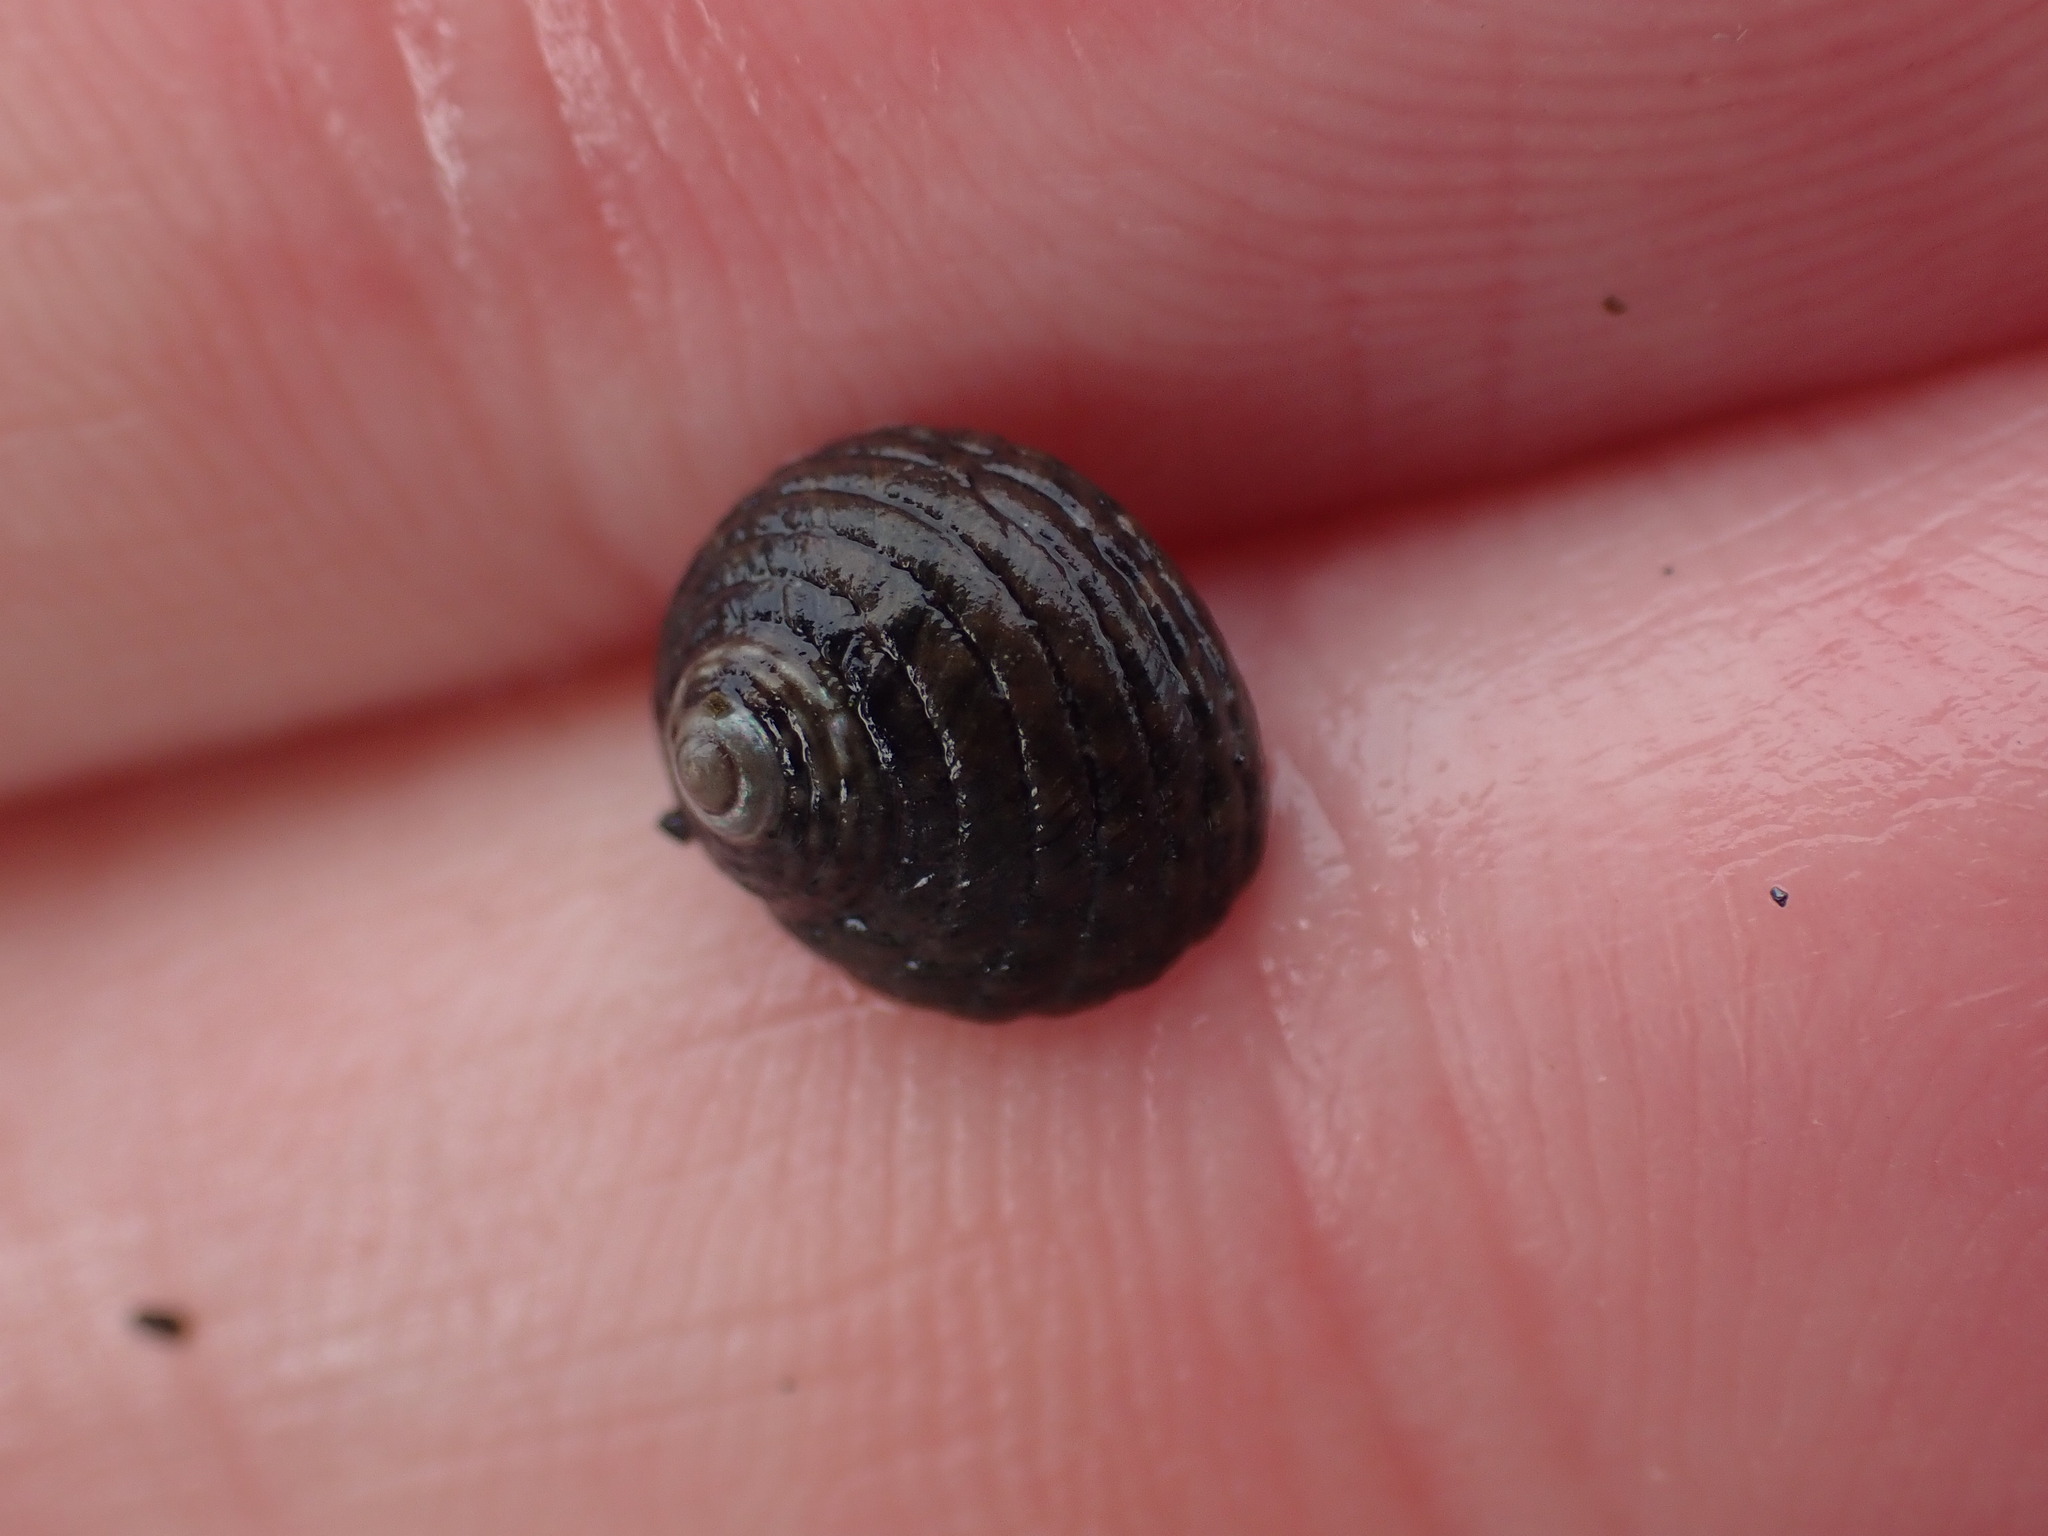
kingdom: Animalia
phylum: Mollusca
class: Gastropoda
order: Trochida
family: Trochidae
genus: Diloma
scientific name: Diloma aethiops
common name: Scorched monodont
